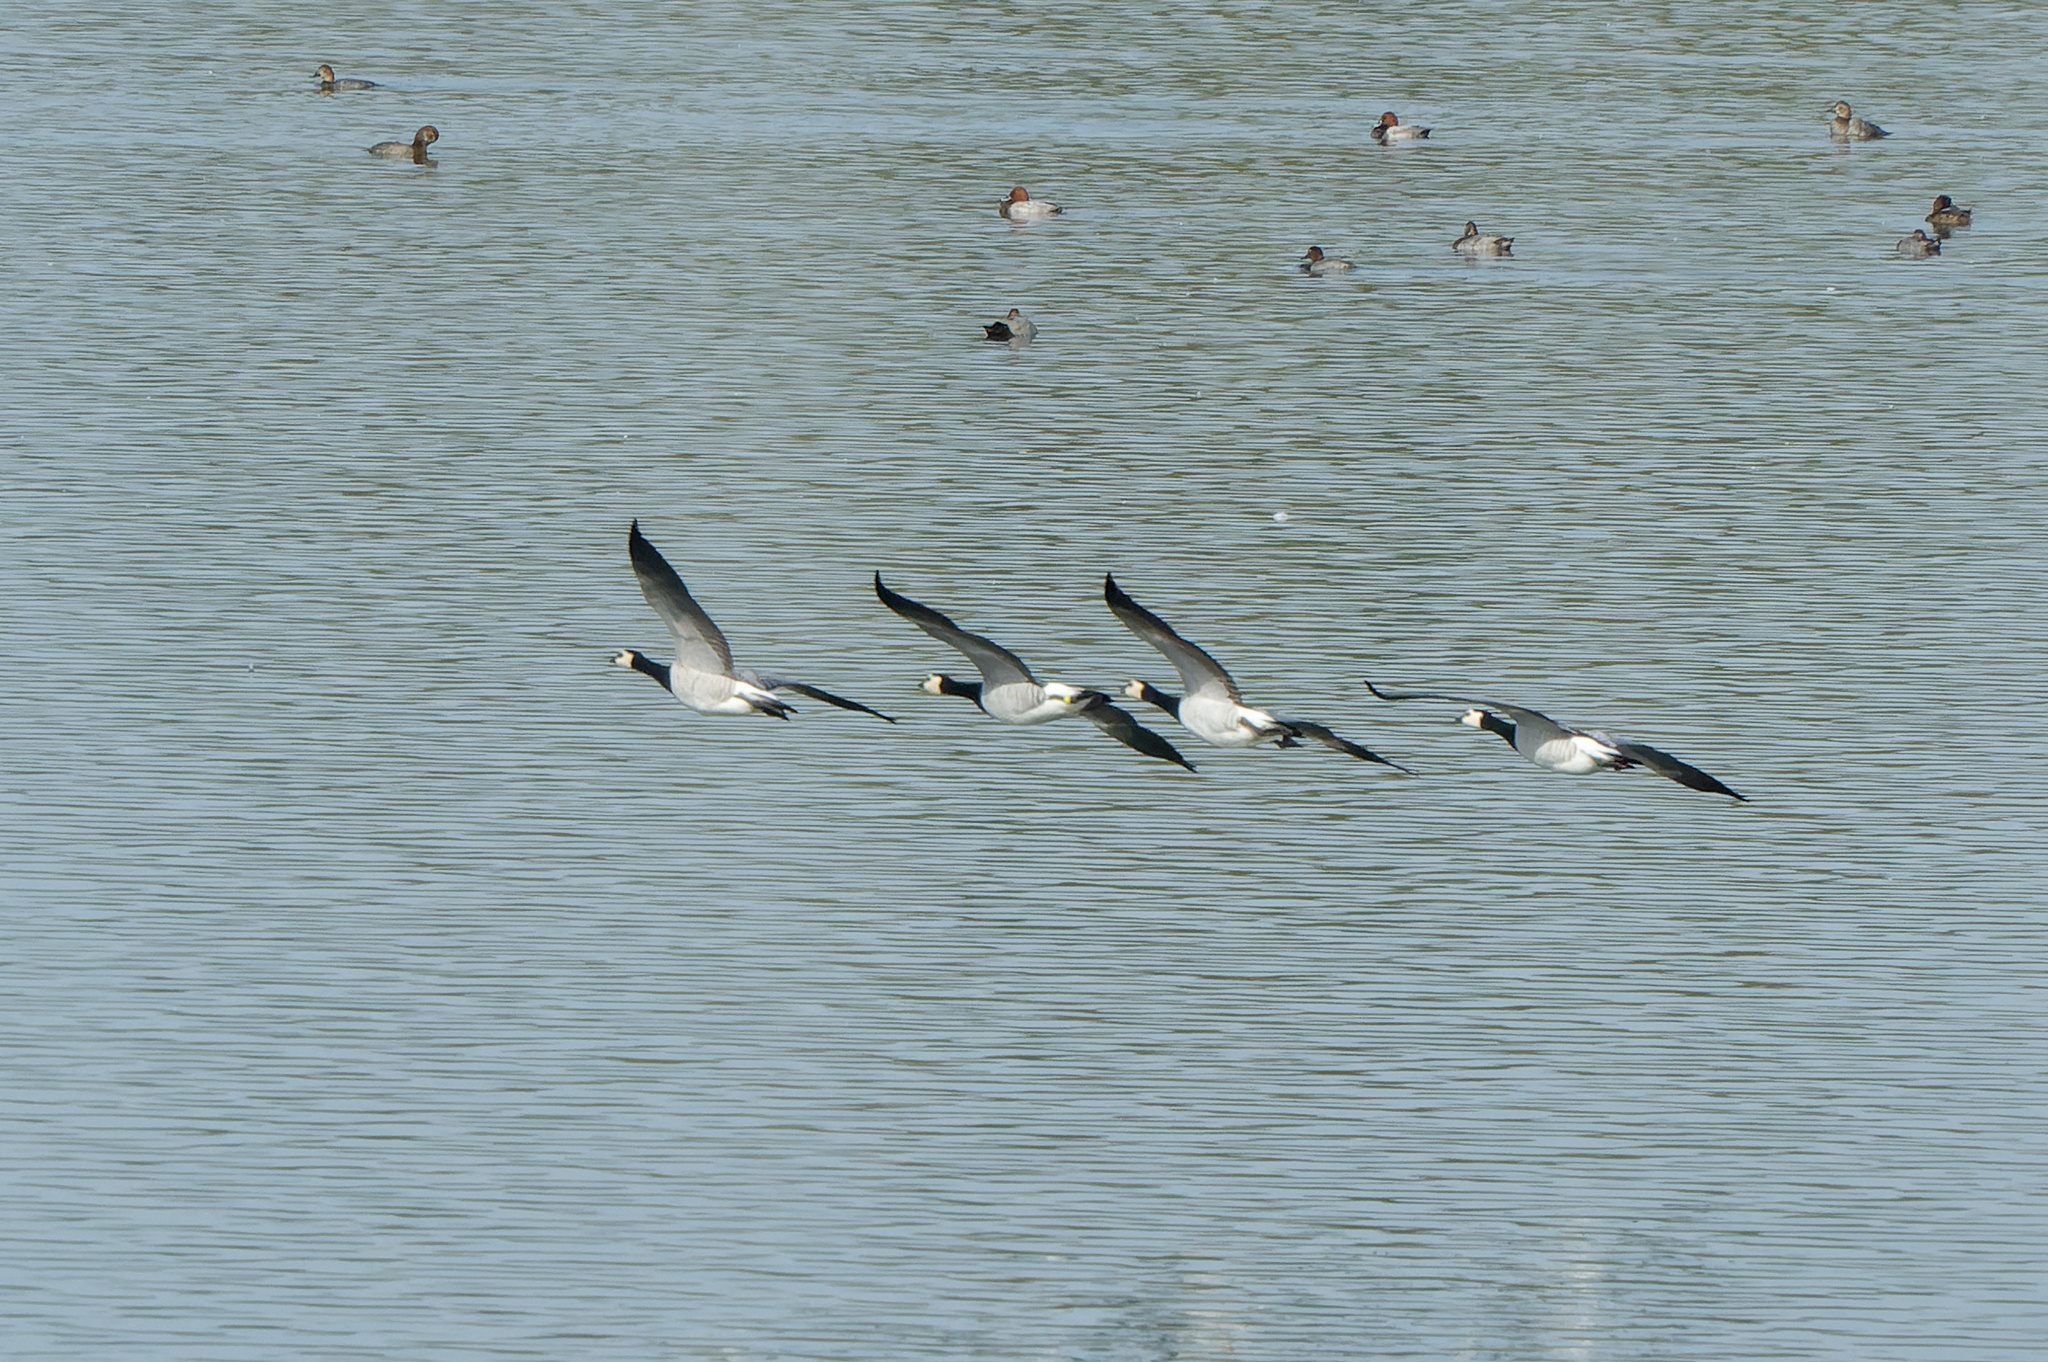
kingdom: Animalia
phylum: Chordata
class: Aves
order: Anseriformes
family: Anatidae
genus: Branta
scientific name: Branta leucopsis
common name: Barnacle goose
